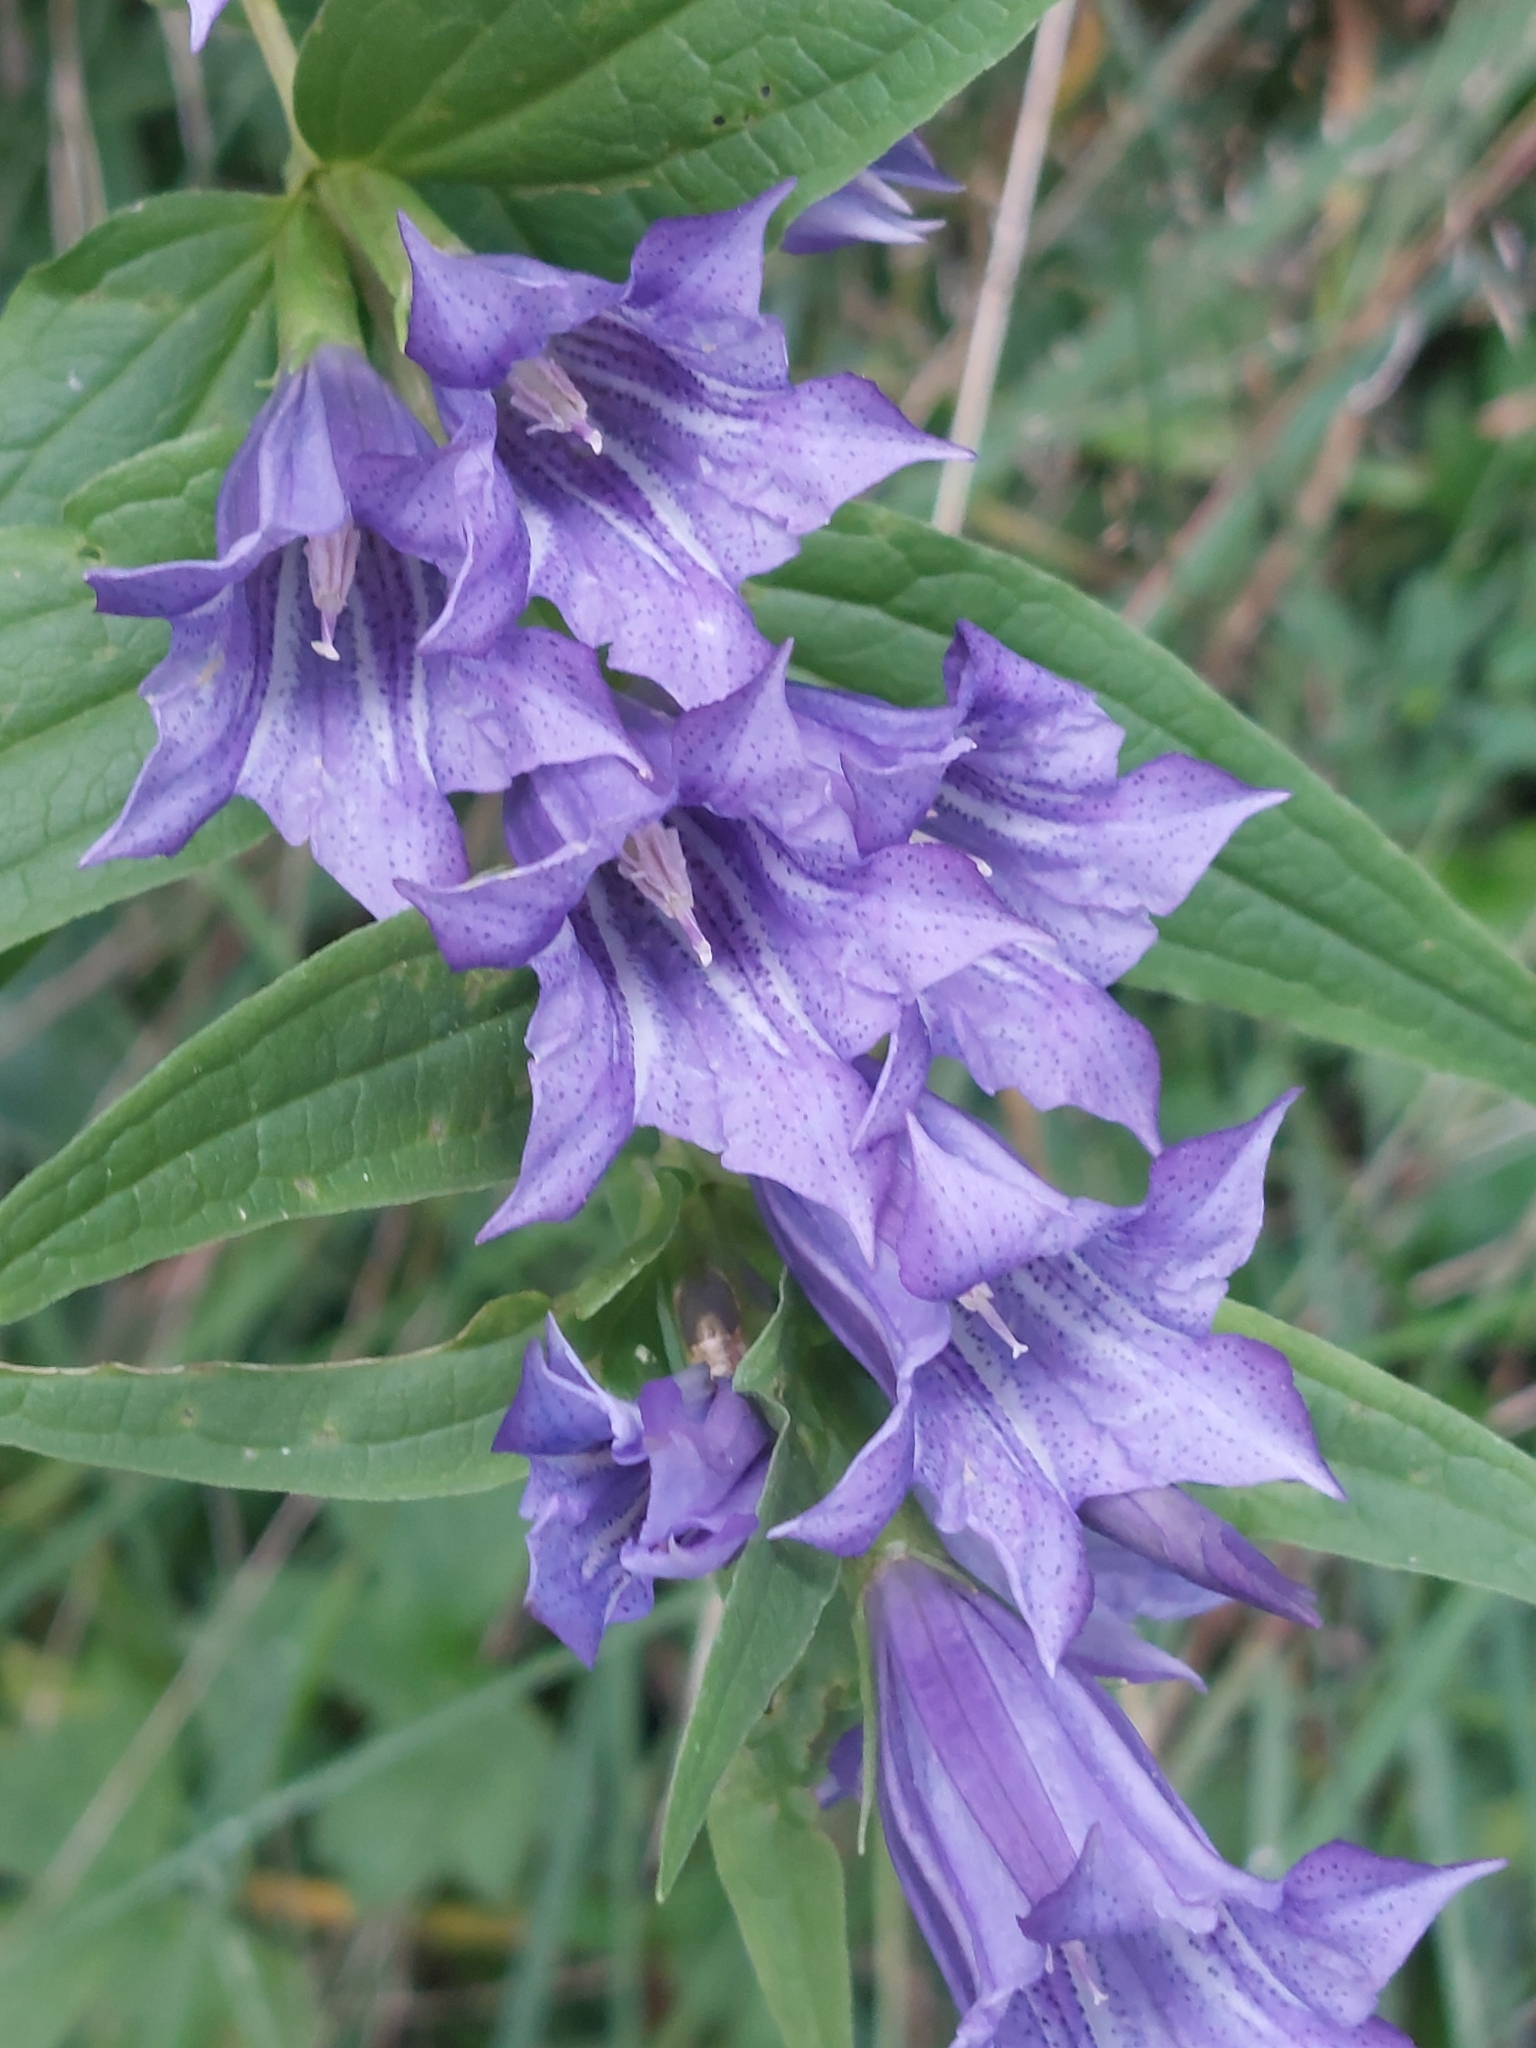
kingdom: Plantae
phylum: Tracheophyta
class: Magnoliopsida
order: Gentianales
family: Gentianaceae
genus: Gentiana
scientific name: Gentiana asclepiadea
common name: Willow gentian
